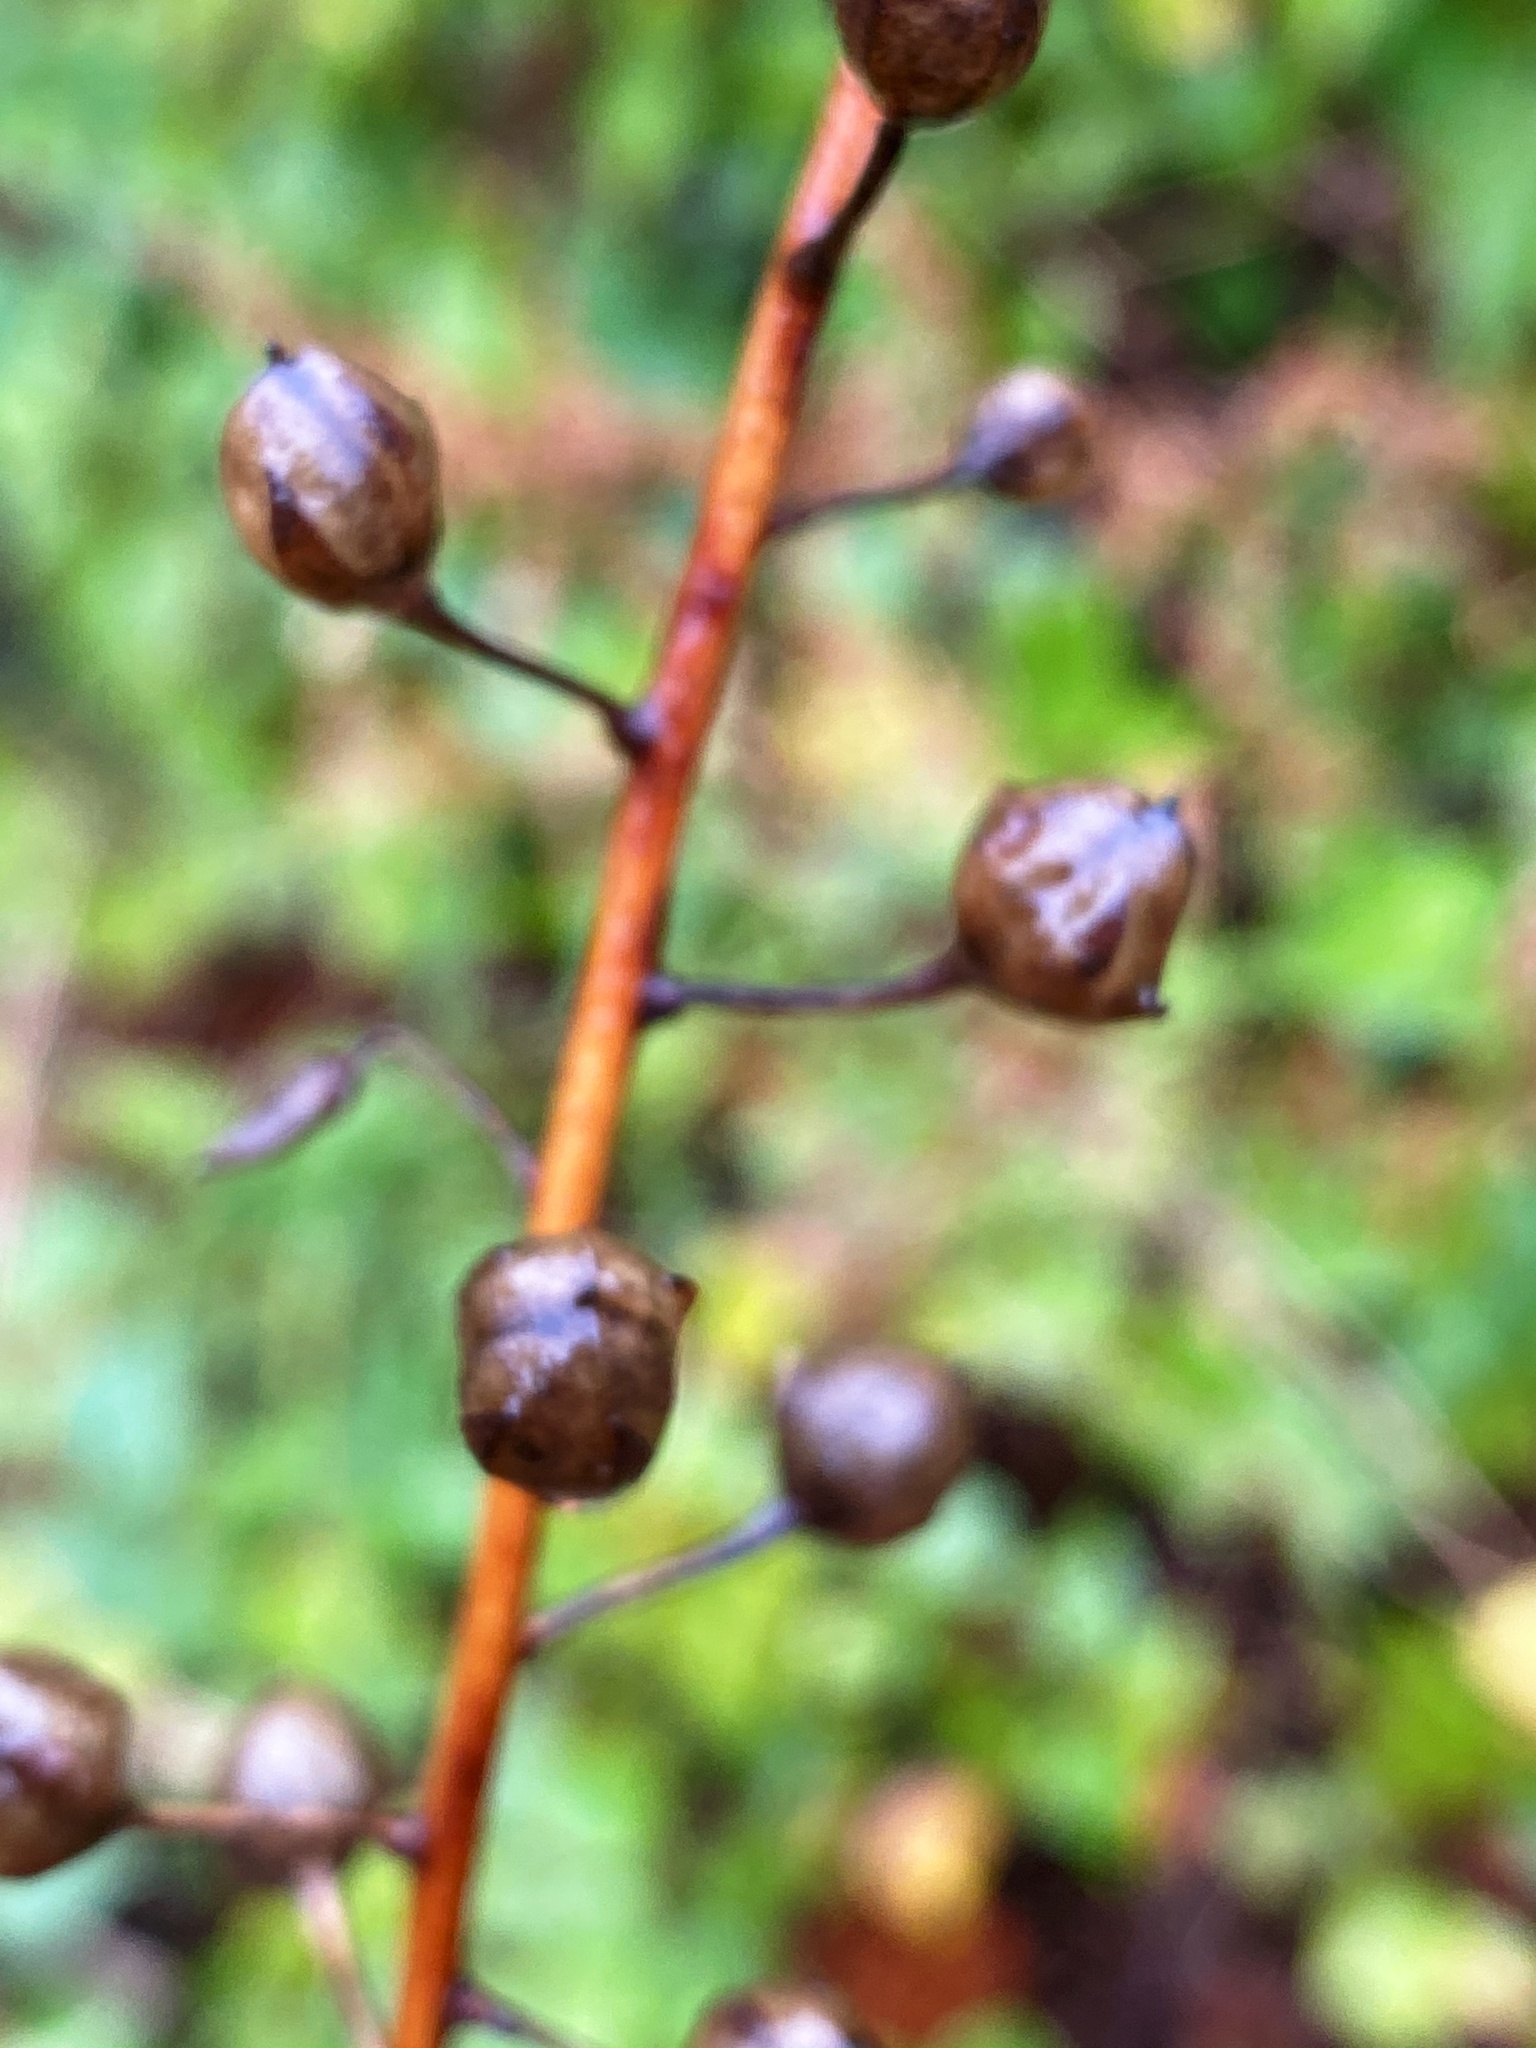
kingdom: Plantae
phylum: Tracheophyta
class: Magnoliopsida
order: Lamiales
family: Scrophulariaceae
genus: Verbascum
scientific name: Verbascum blattaria
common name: Moth mullein
